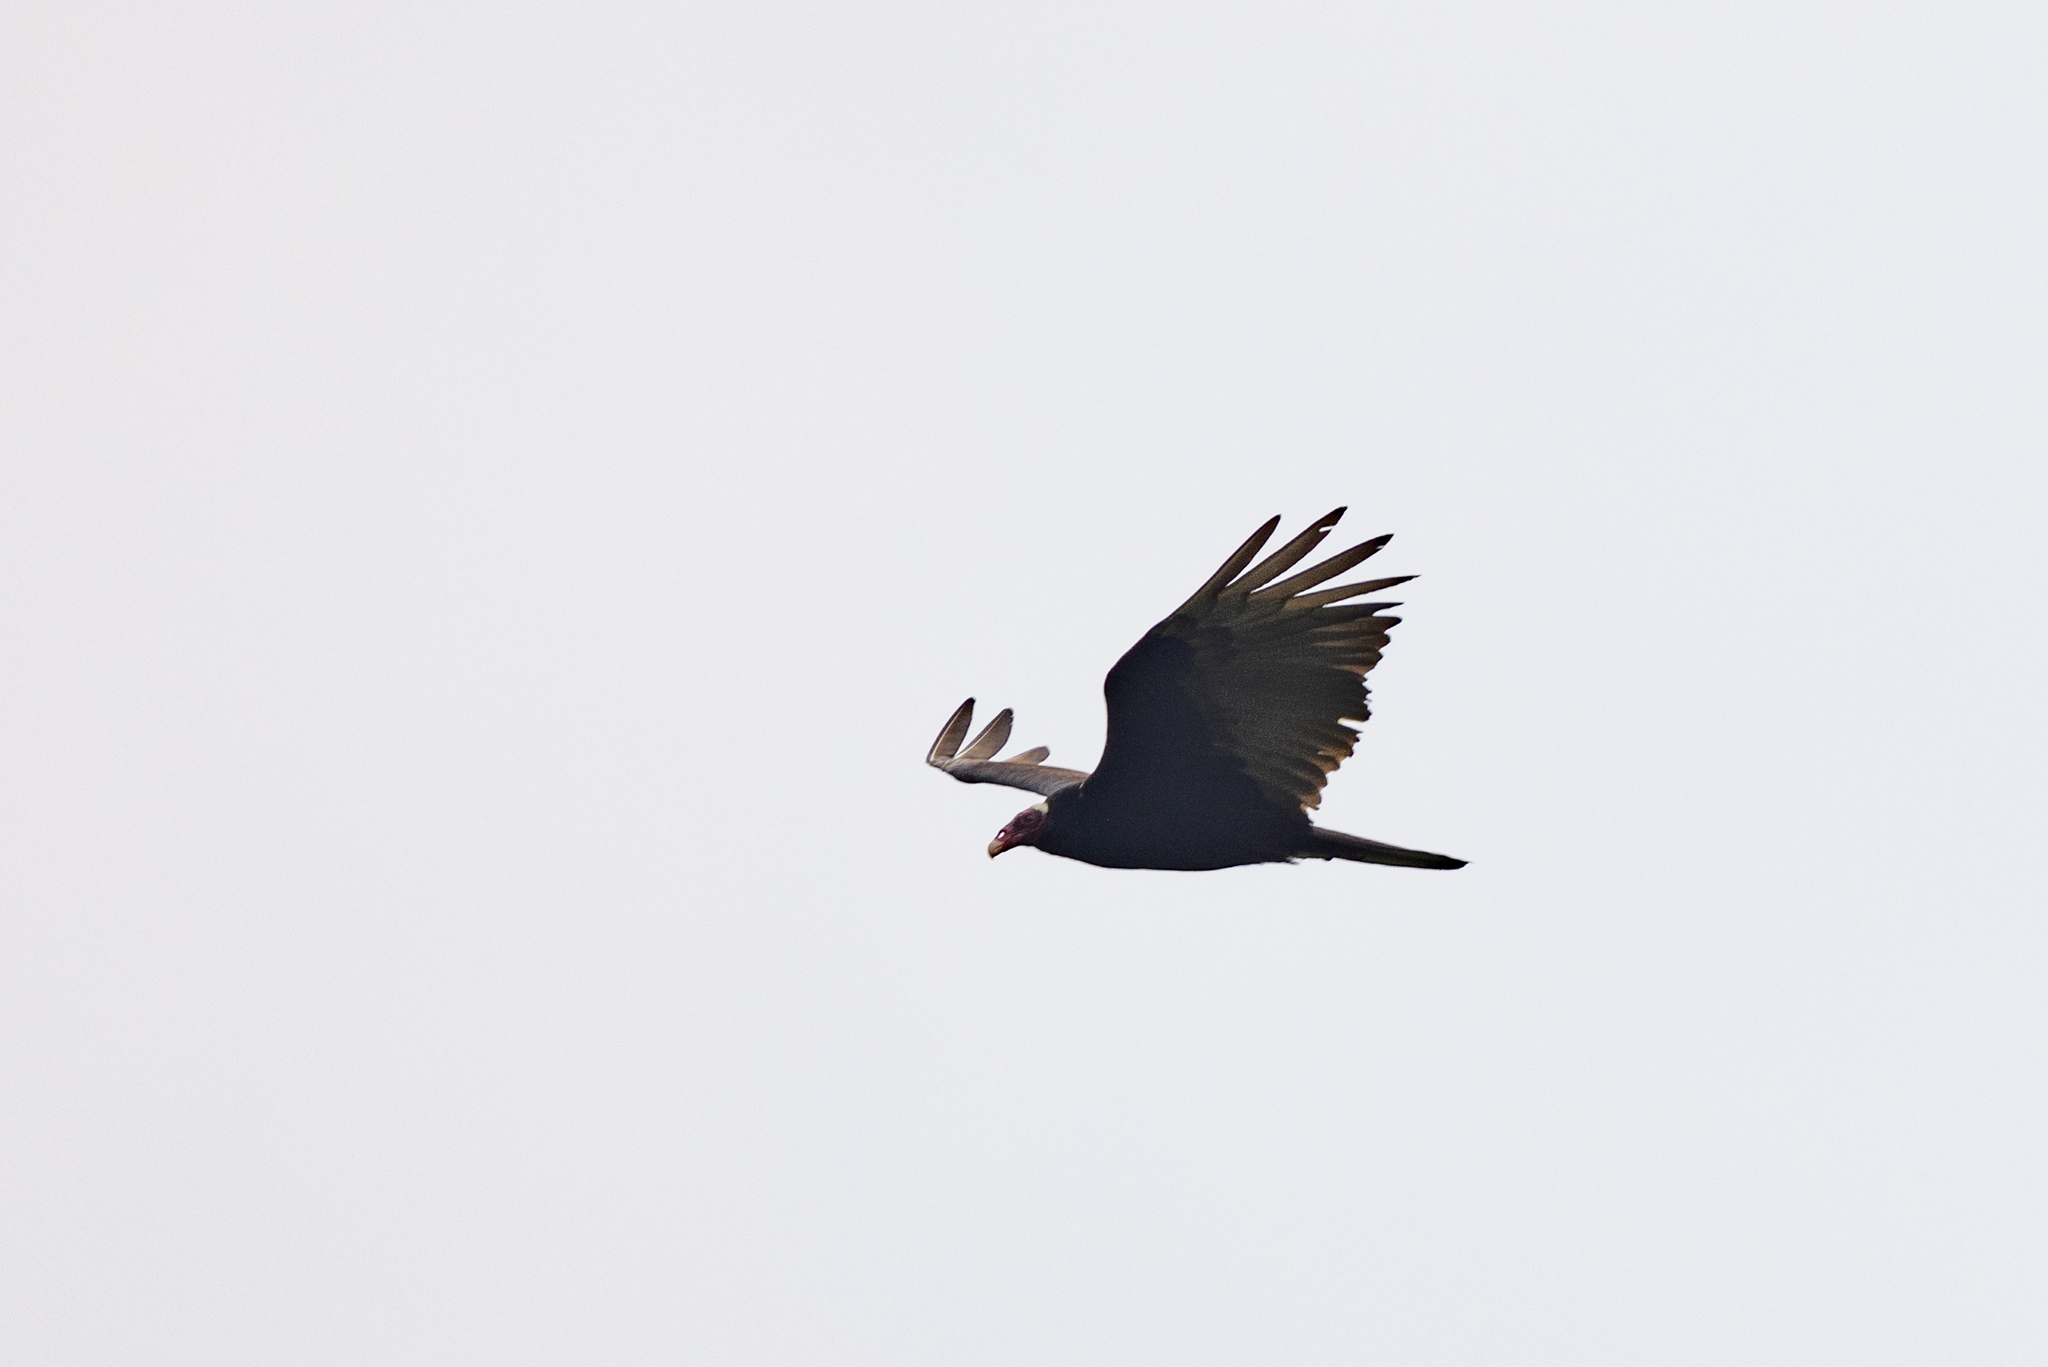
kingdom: Animalia
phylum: Chordata
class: Aves
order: Accipitriformes
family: Cathartidae
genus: Cathartes
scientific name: Cathartes aura
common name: Turkey vulture
